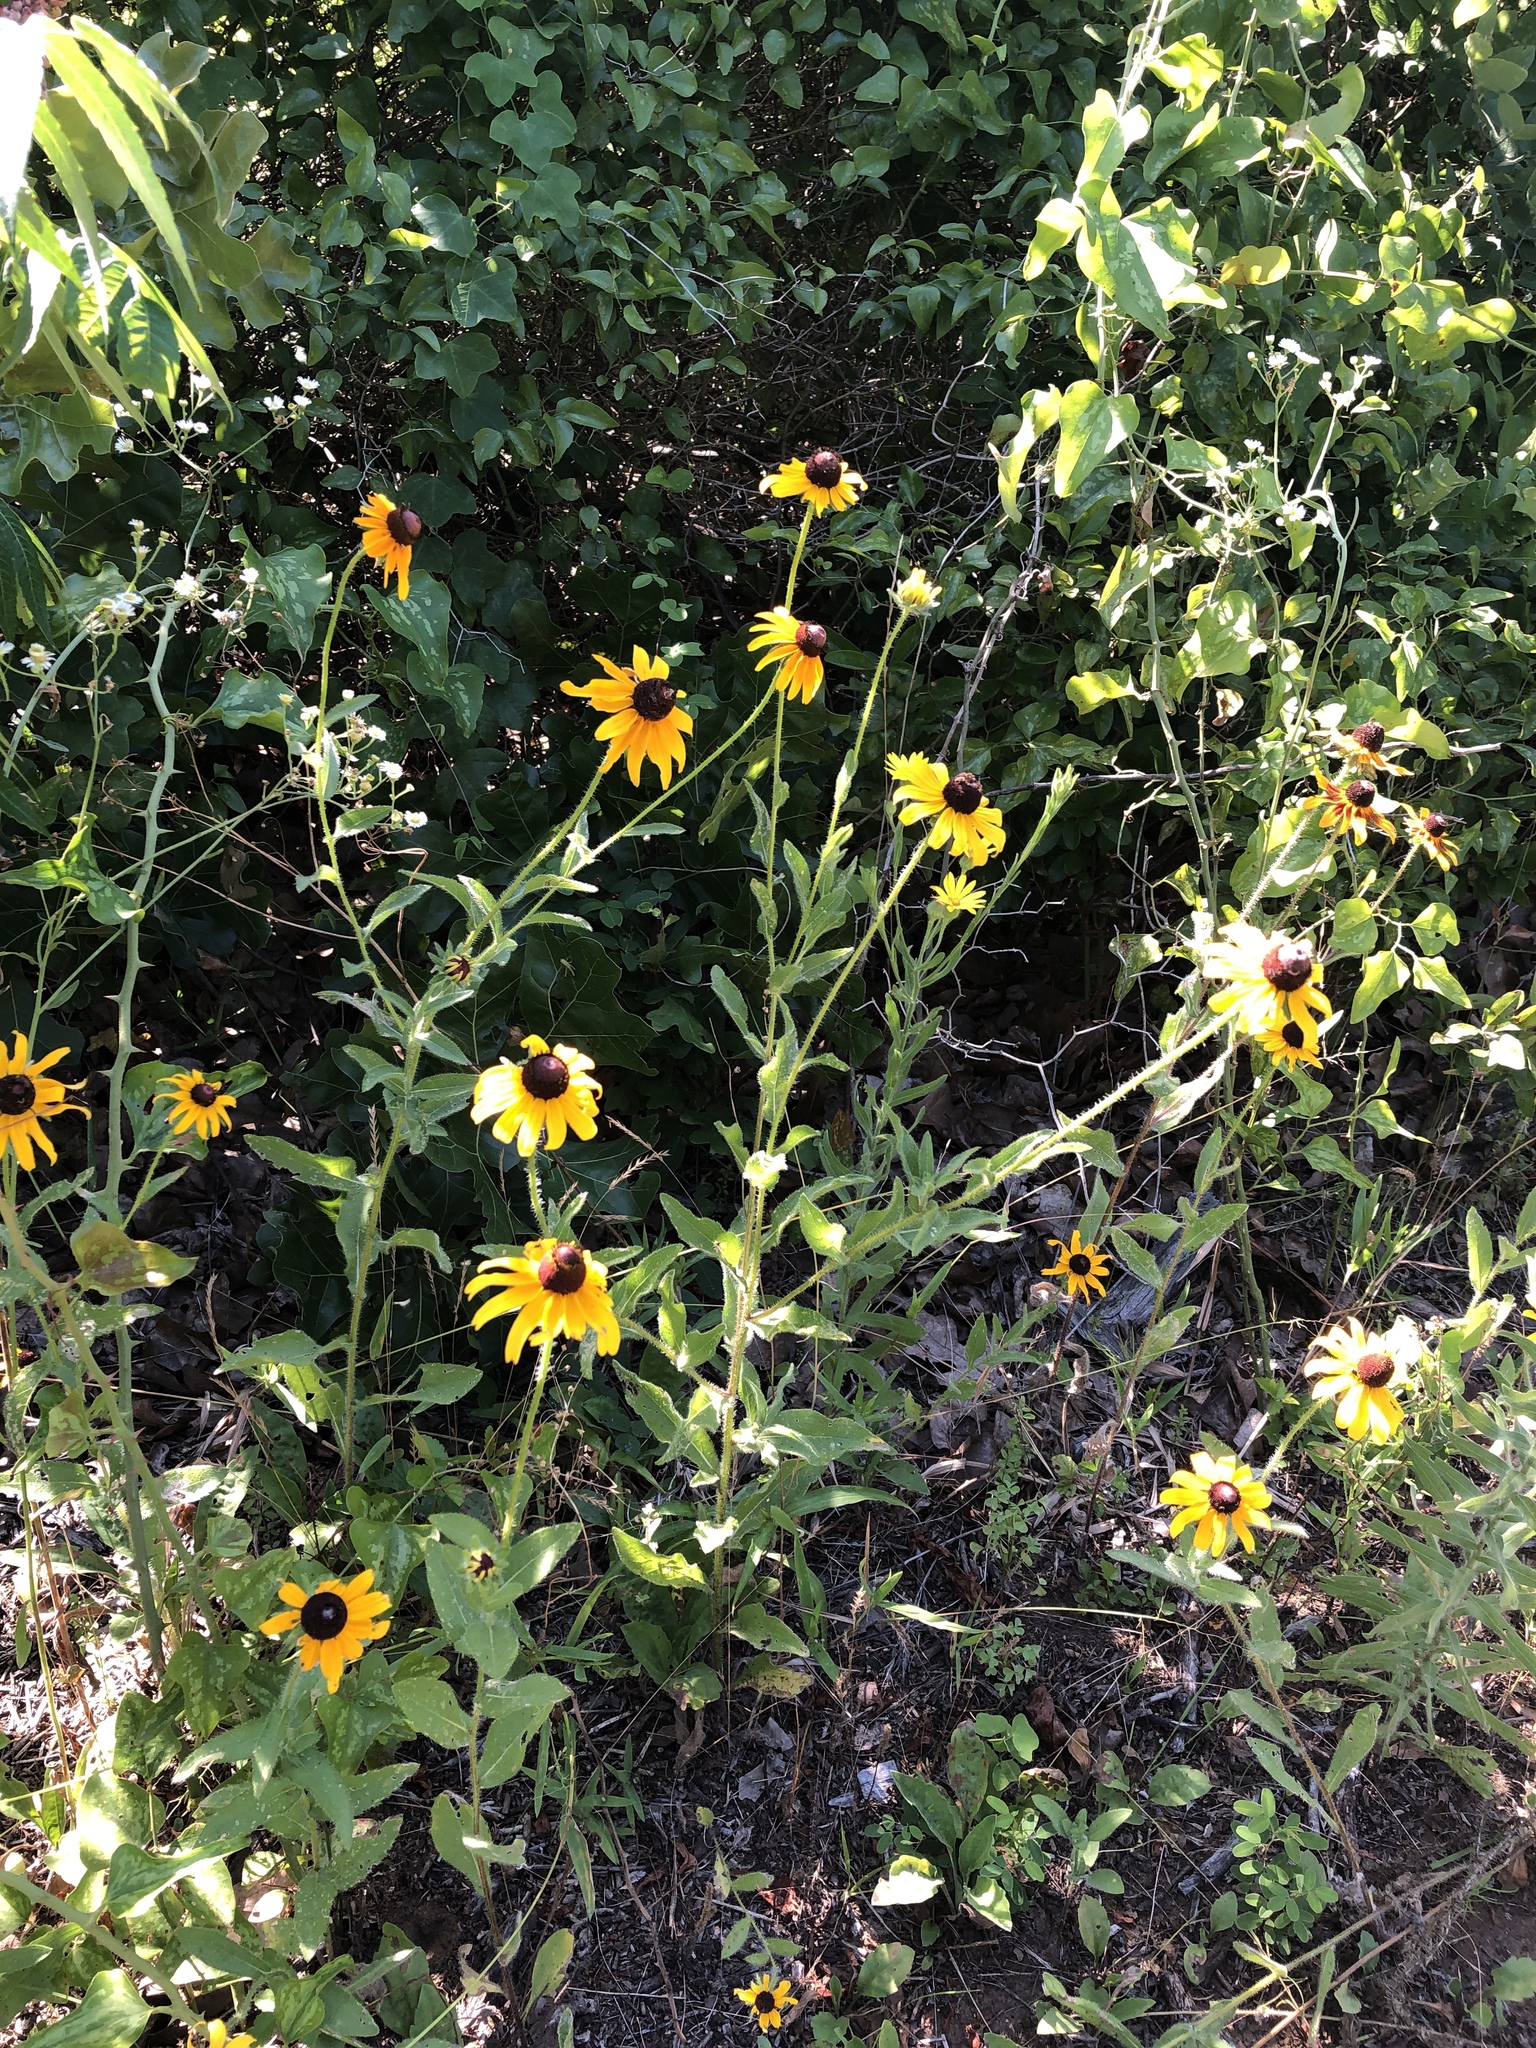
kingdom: Plantae
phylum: Tracheophyta
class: Magnoliopsida
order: Asterales
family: Asteraceae
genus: Rudbeckia
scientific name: Rudbeckia hirta
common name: Black-eyed-susan
